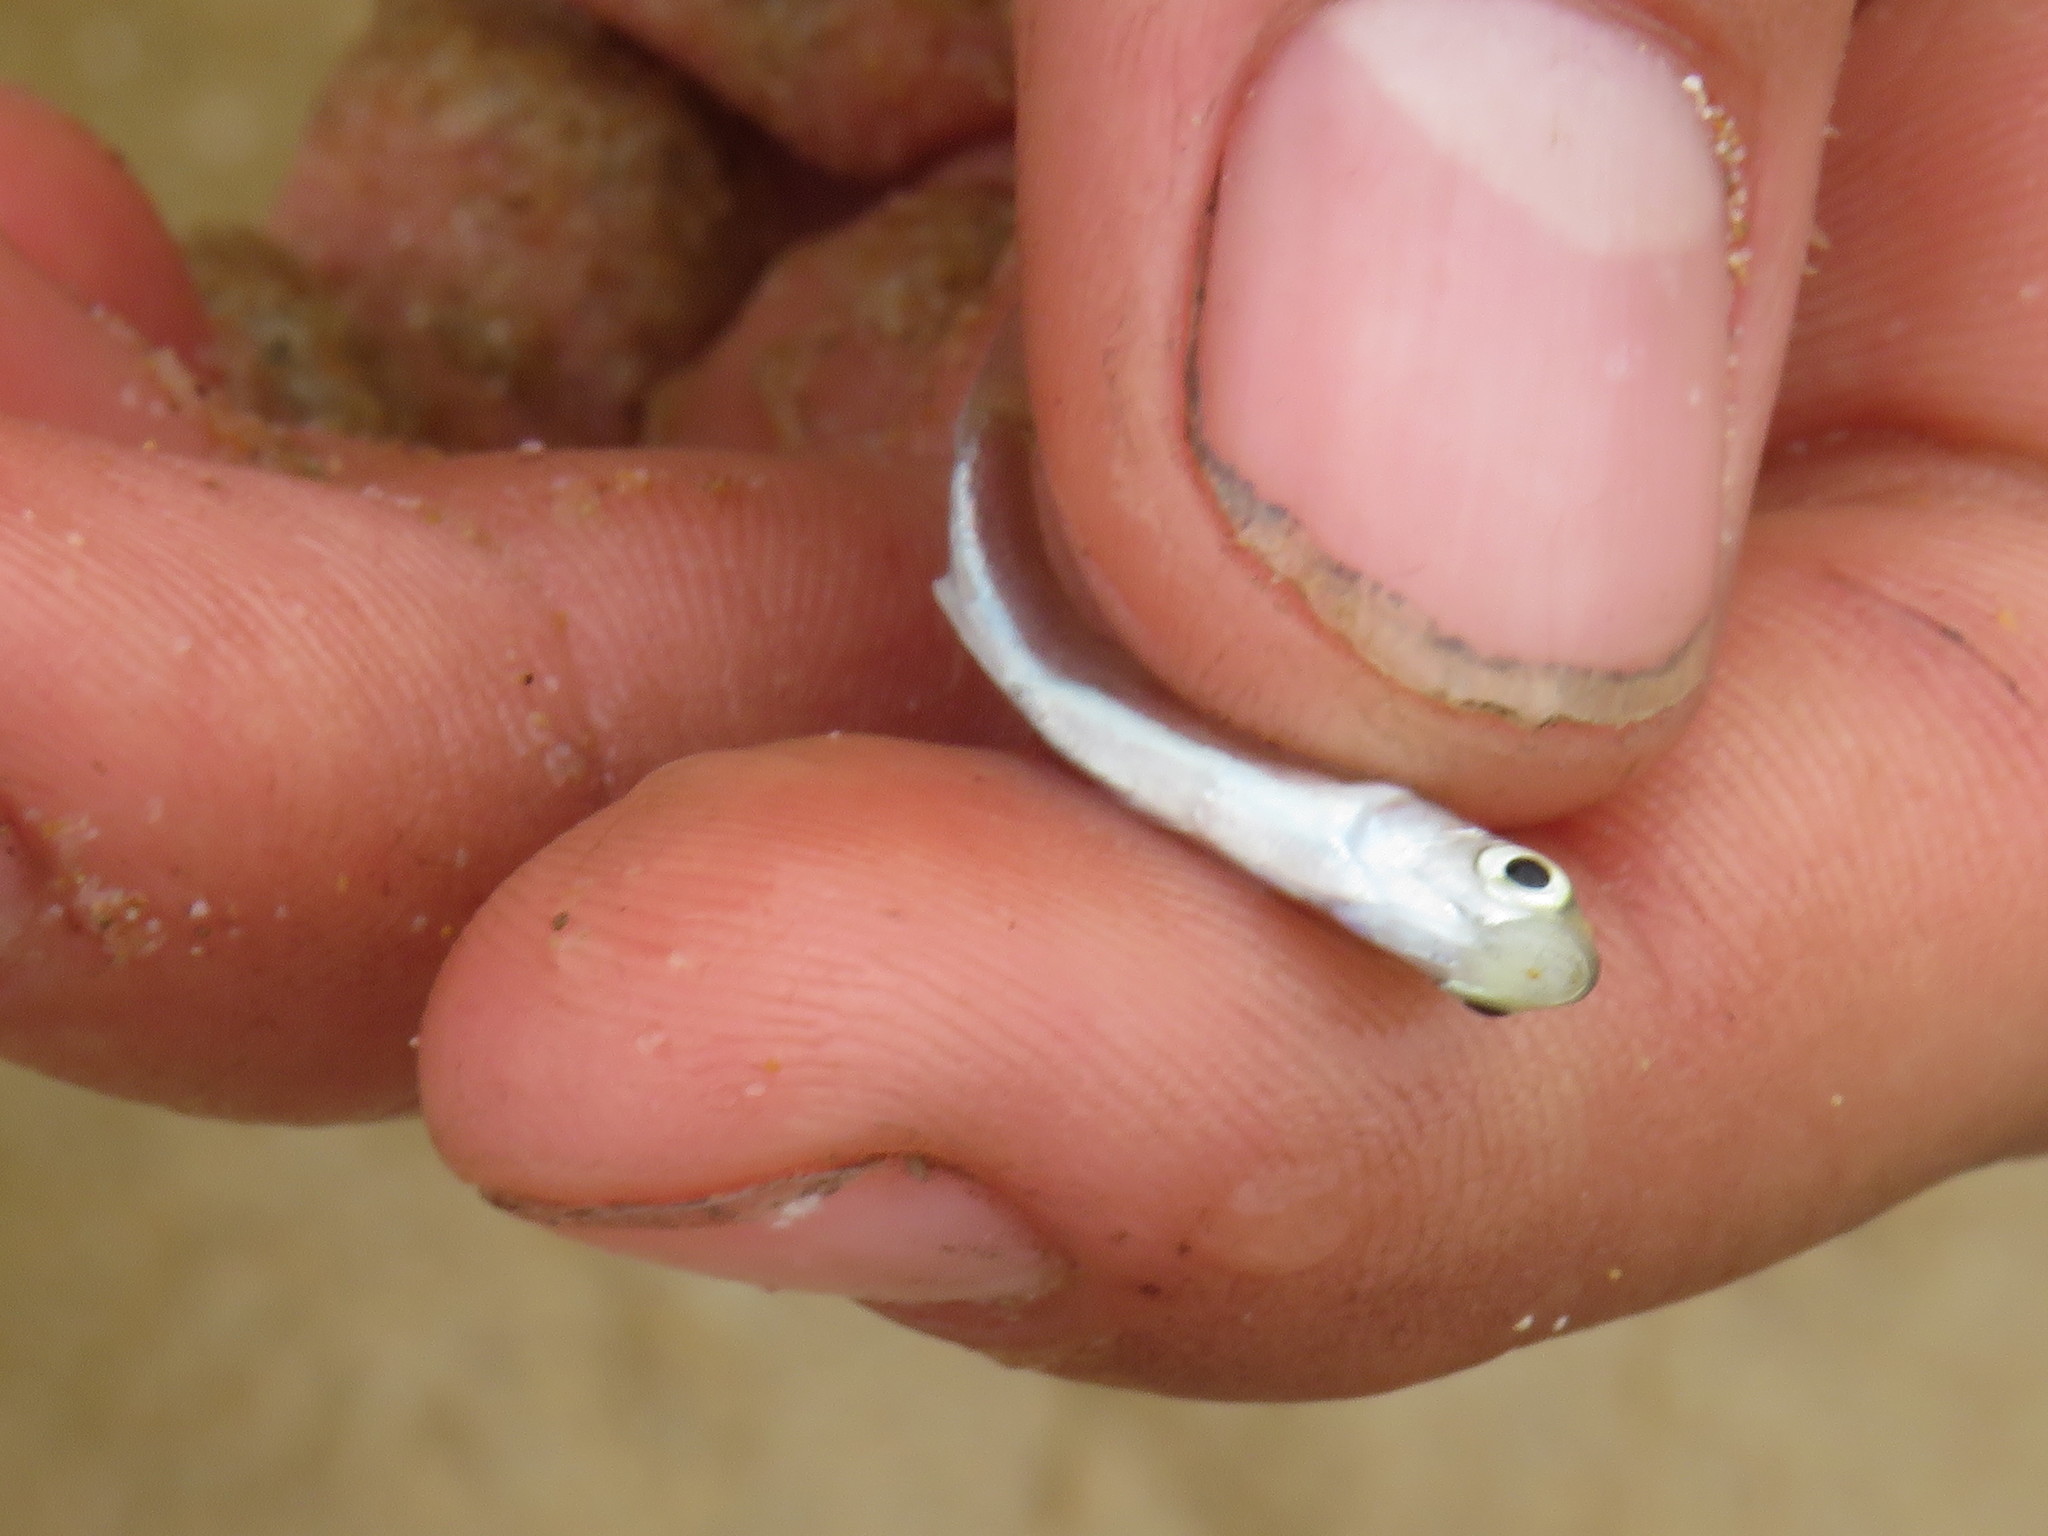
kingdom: Animalia
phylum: Chordata
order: Mugiliformes
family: Mugilidae
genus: Pseudomyxus
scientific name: Pseudomyxus capensis
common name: Freshwater mullet
